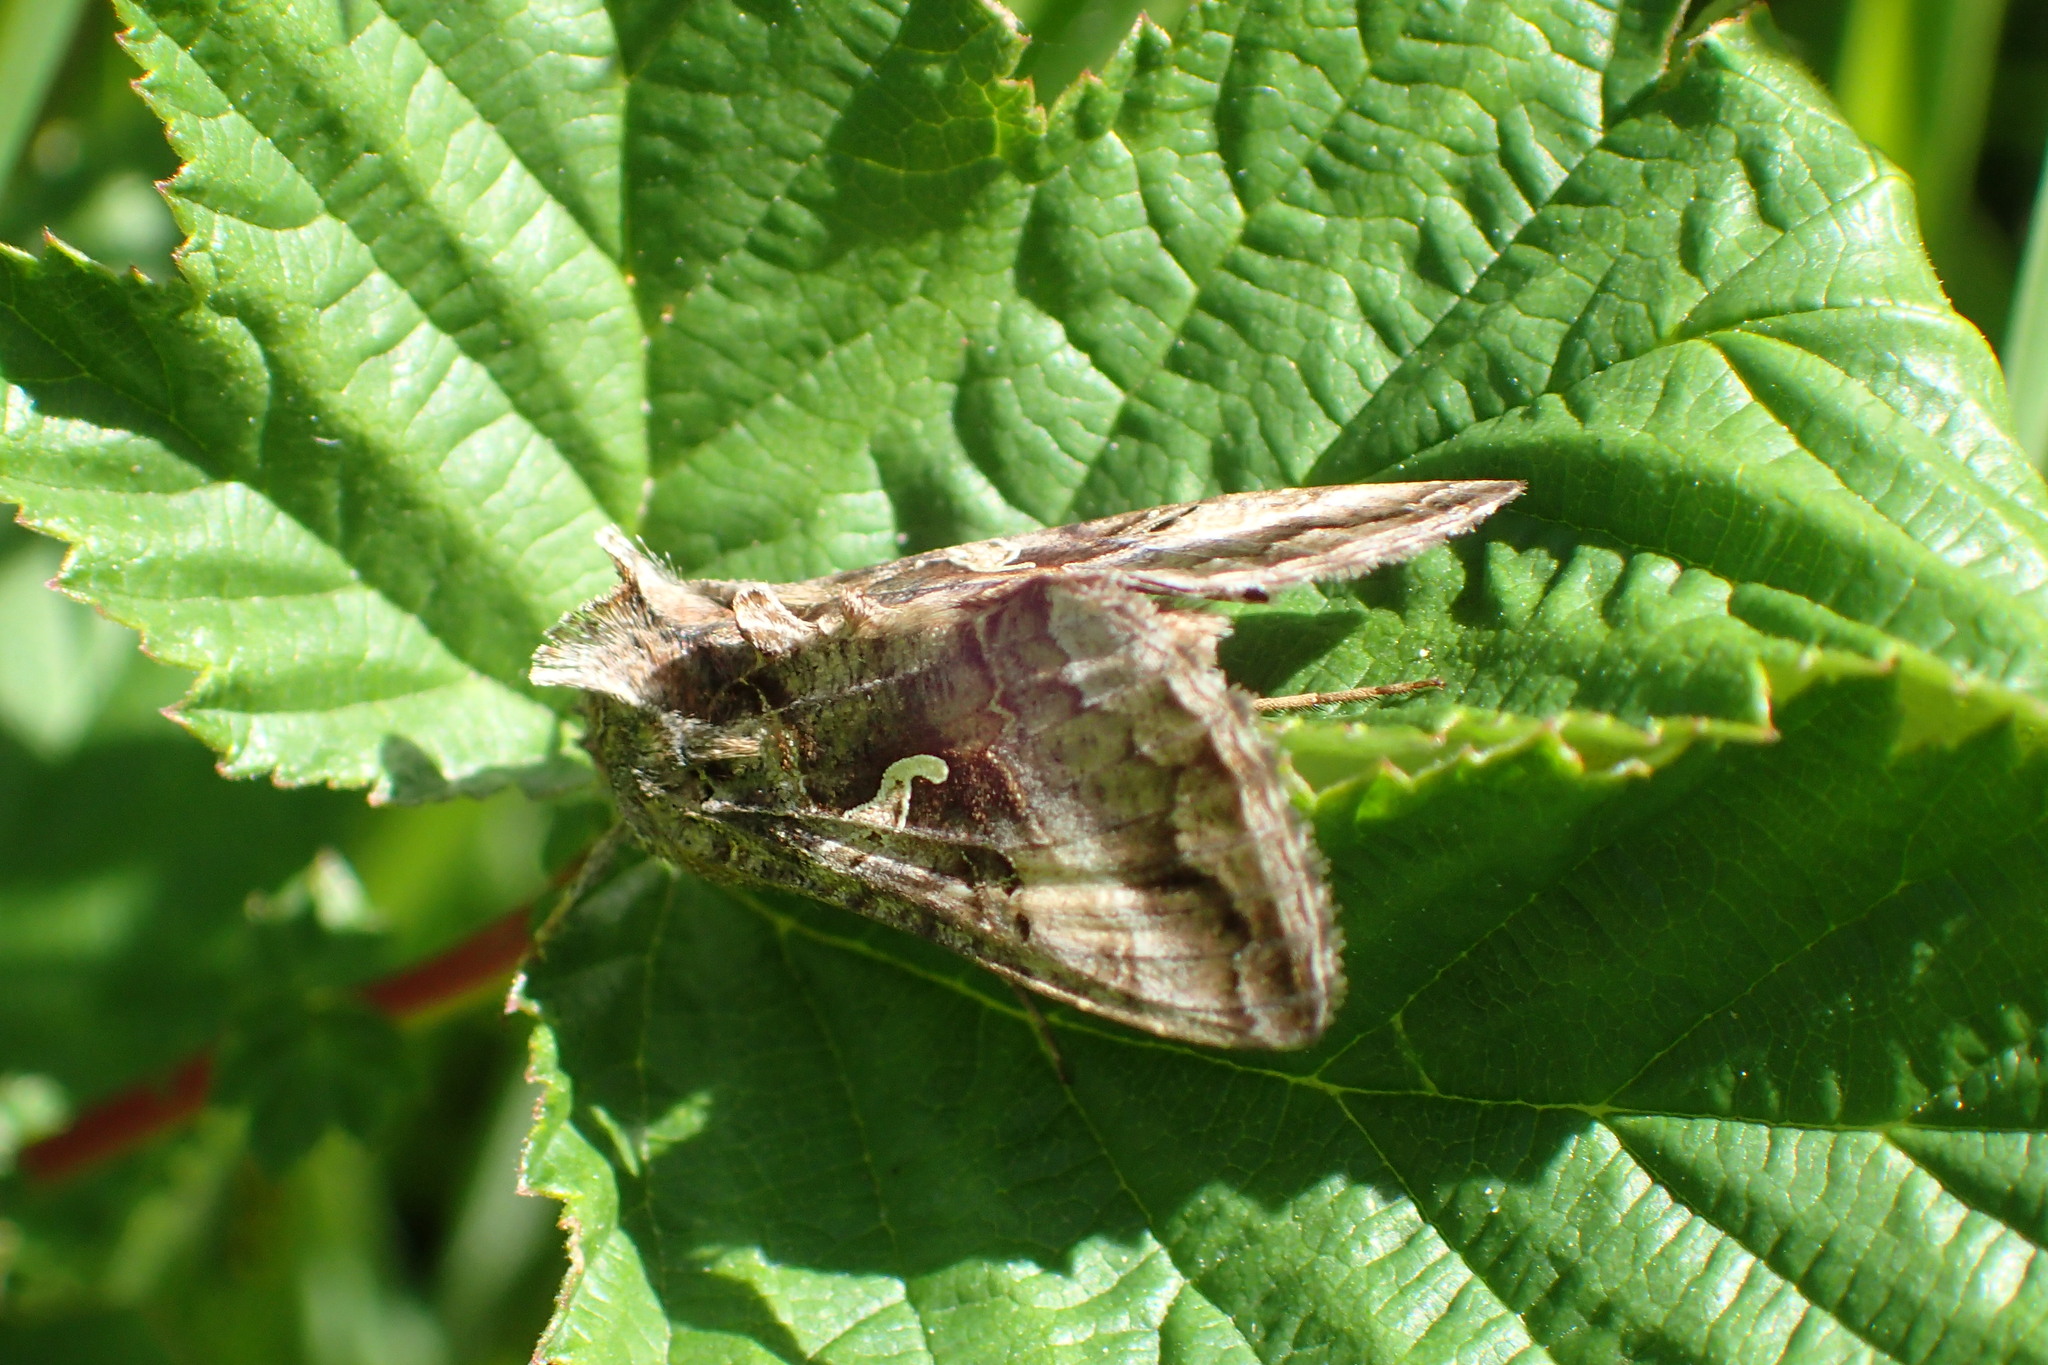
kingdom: Animalia
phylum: Arthropoda
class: Insecta
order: Lepidoptera
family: Noctuidae
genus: Autographa
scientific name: Autographa gamma
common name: Silver y
